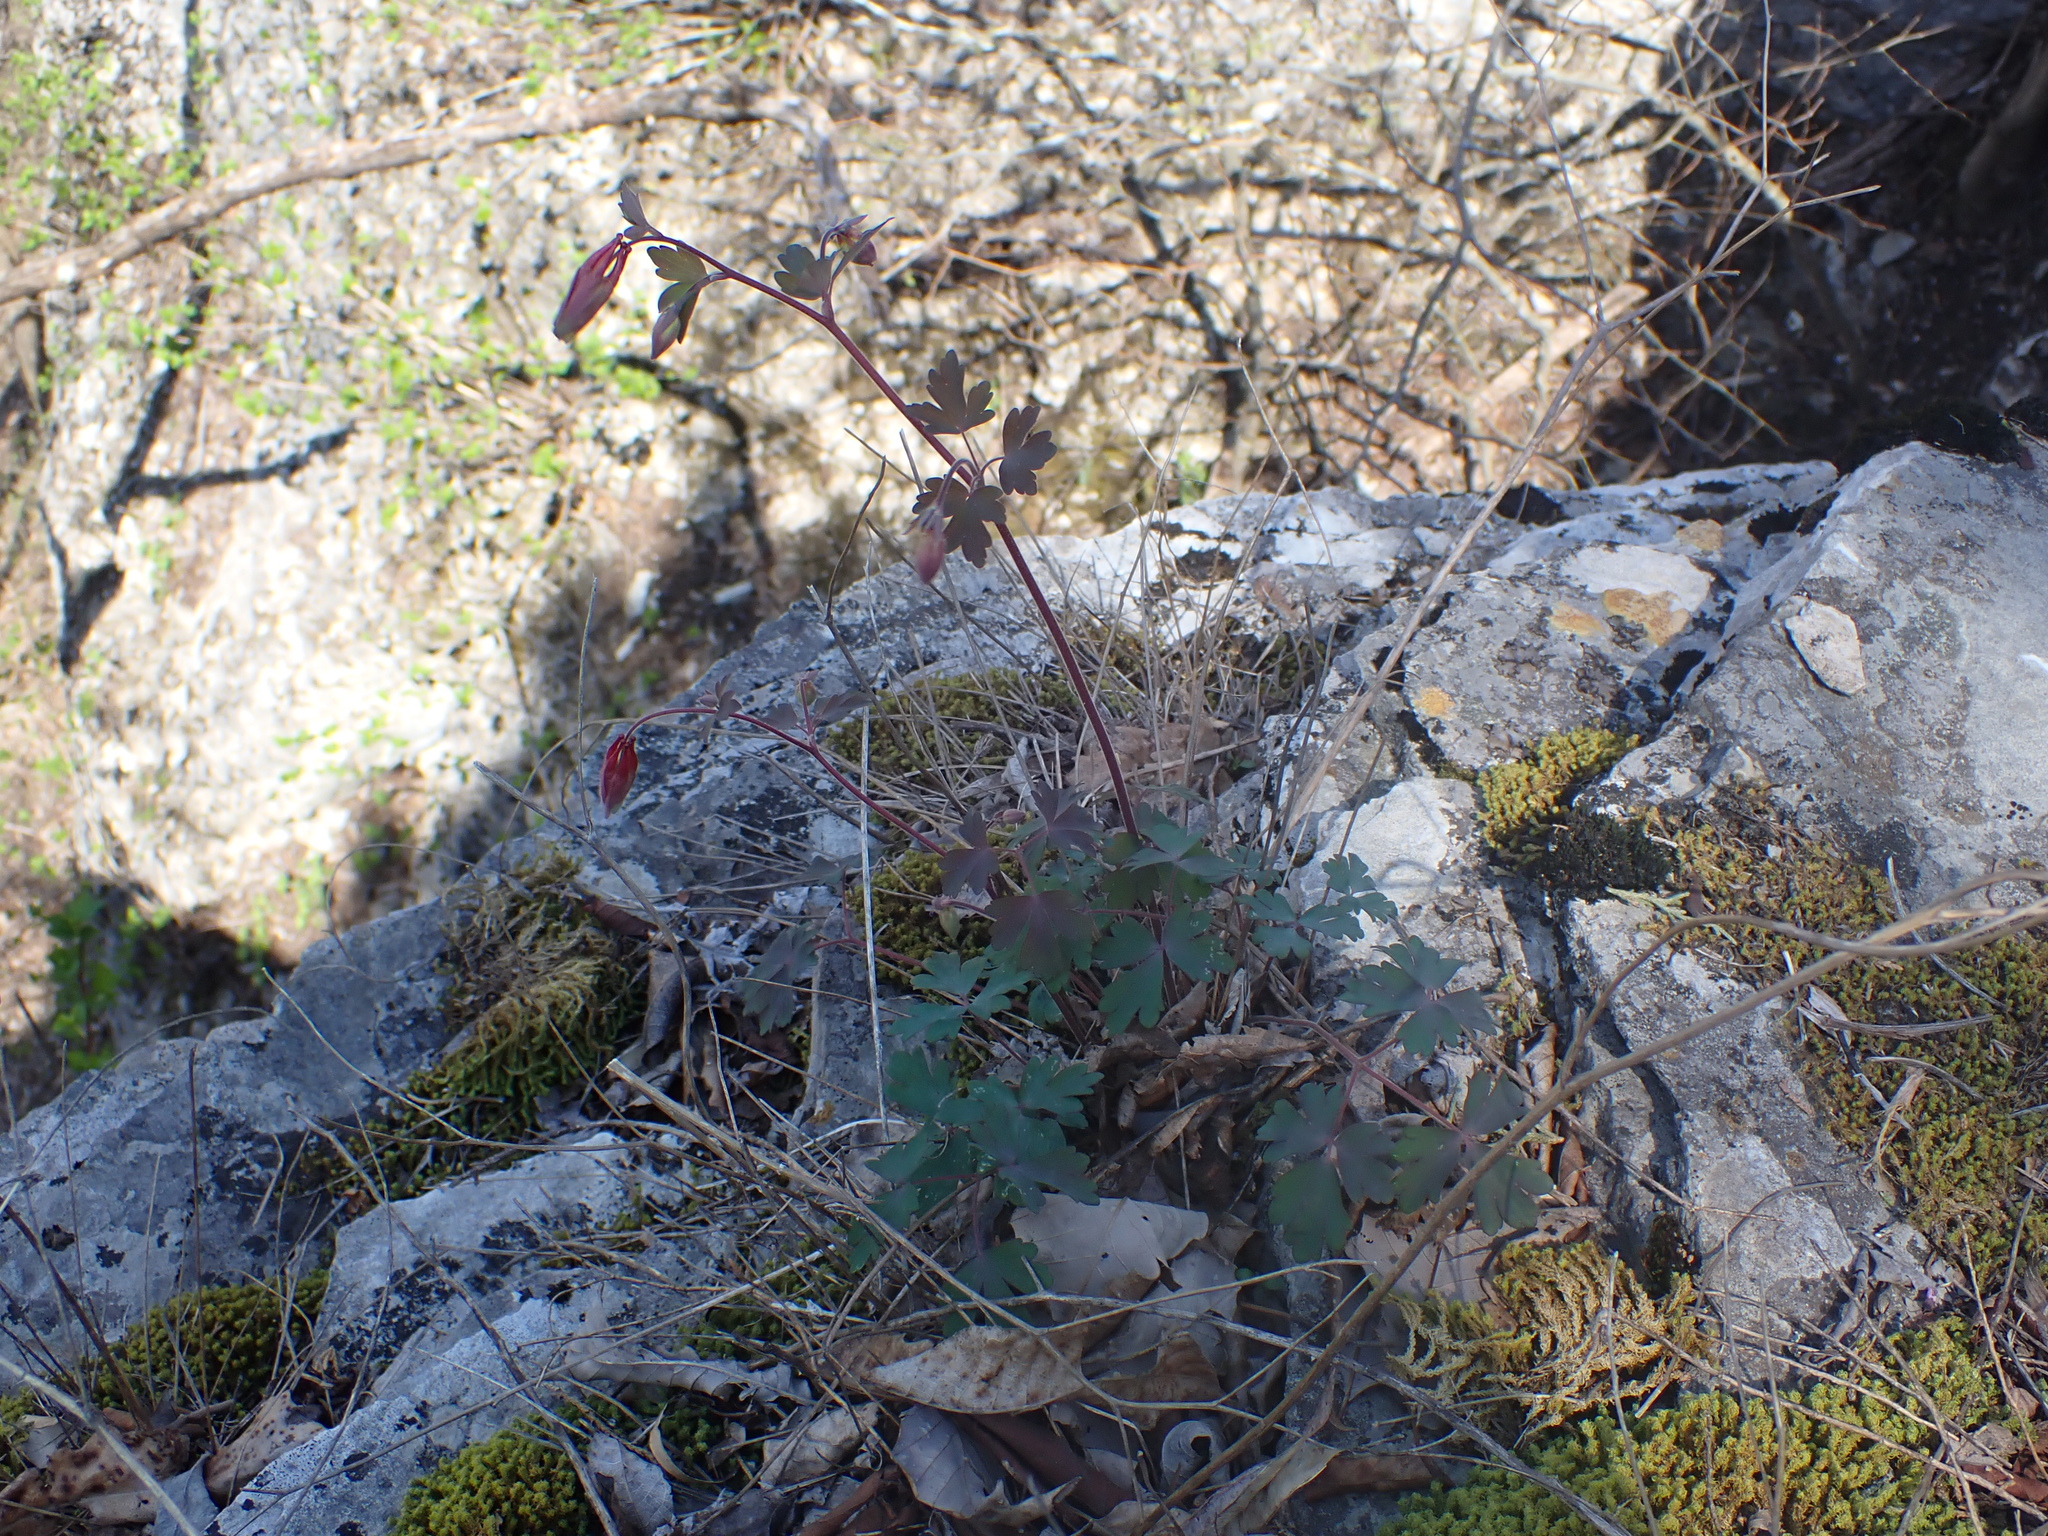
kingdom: Plantae
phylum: Tracheophyta
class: Magnoliopsida
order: Ranunculales
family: Ranunculaceae
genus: Aquilegia
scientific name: Aquilegia canadensis
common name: American columbine
